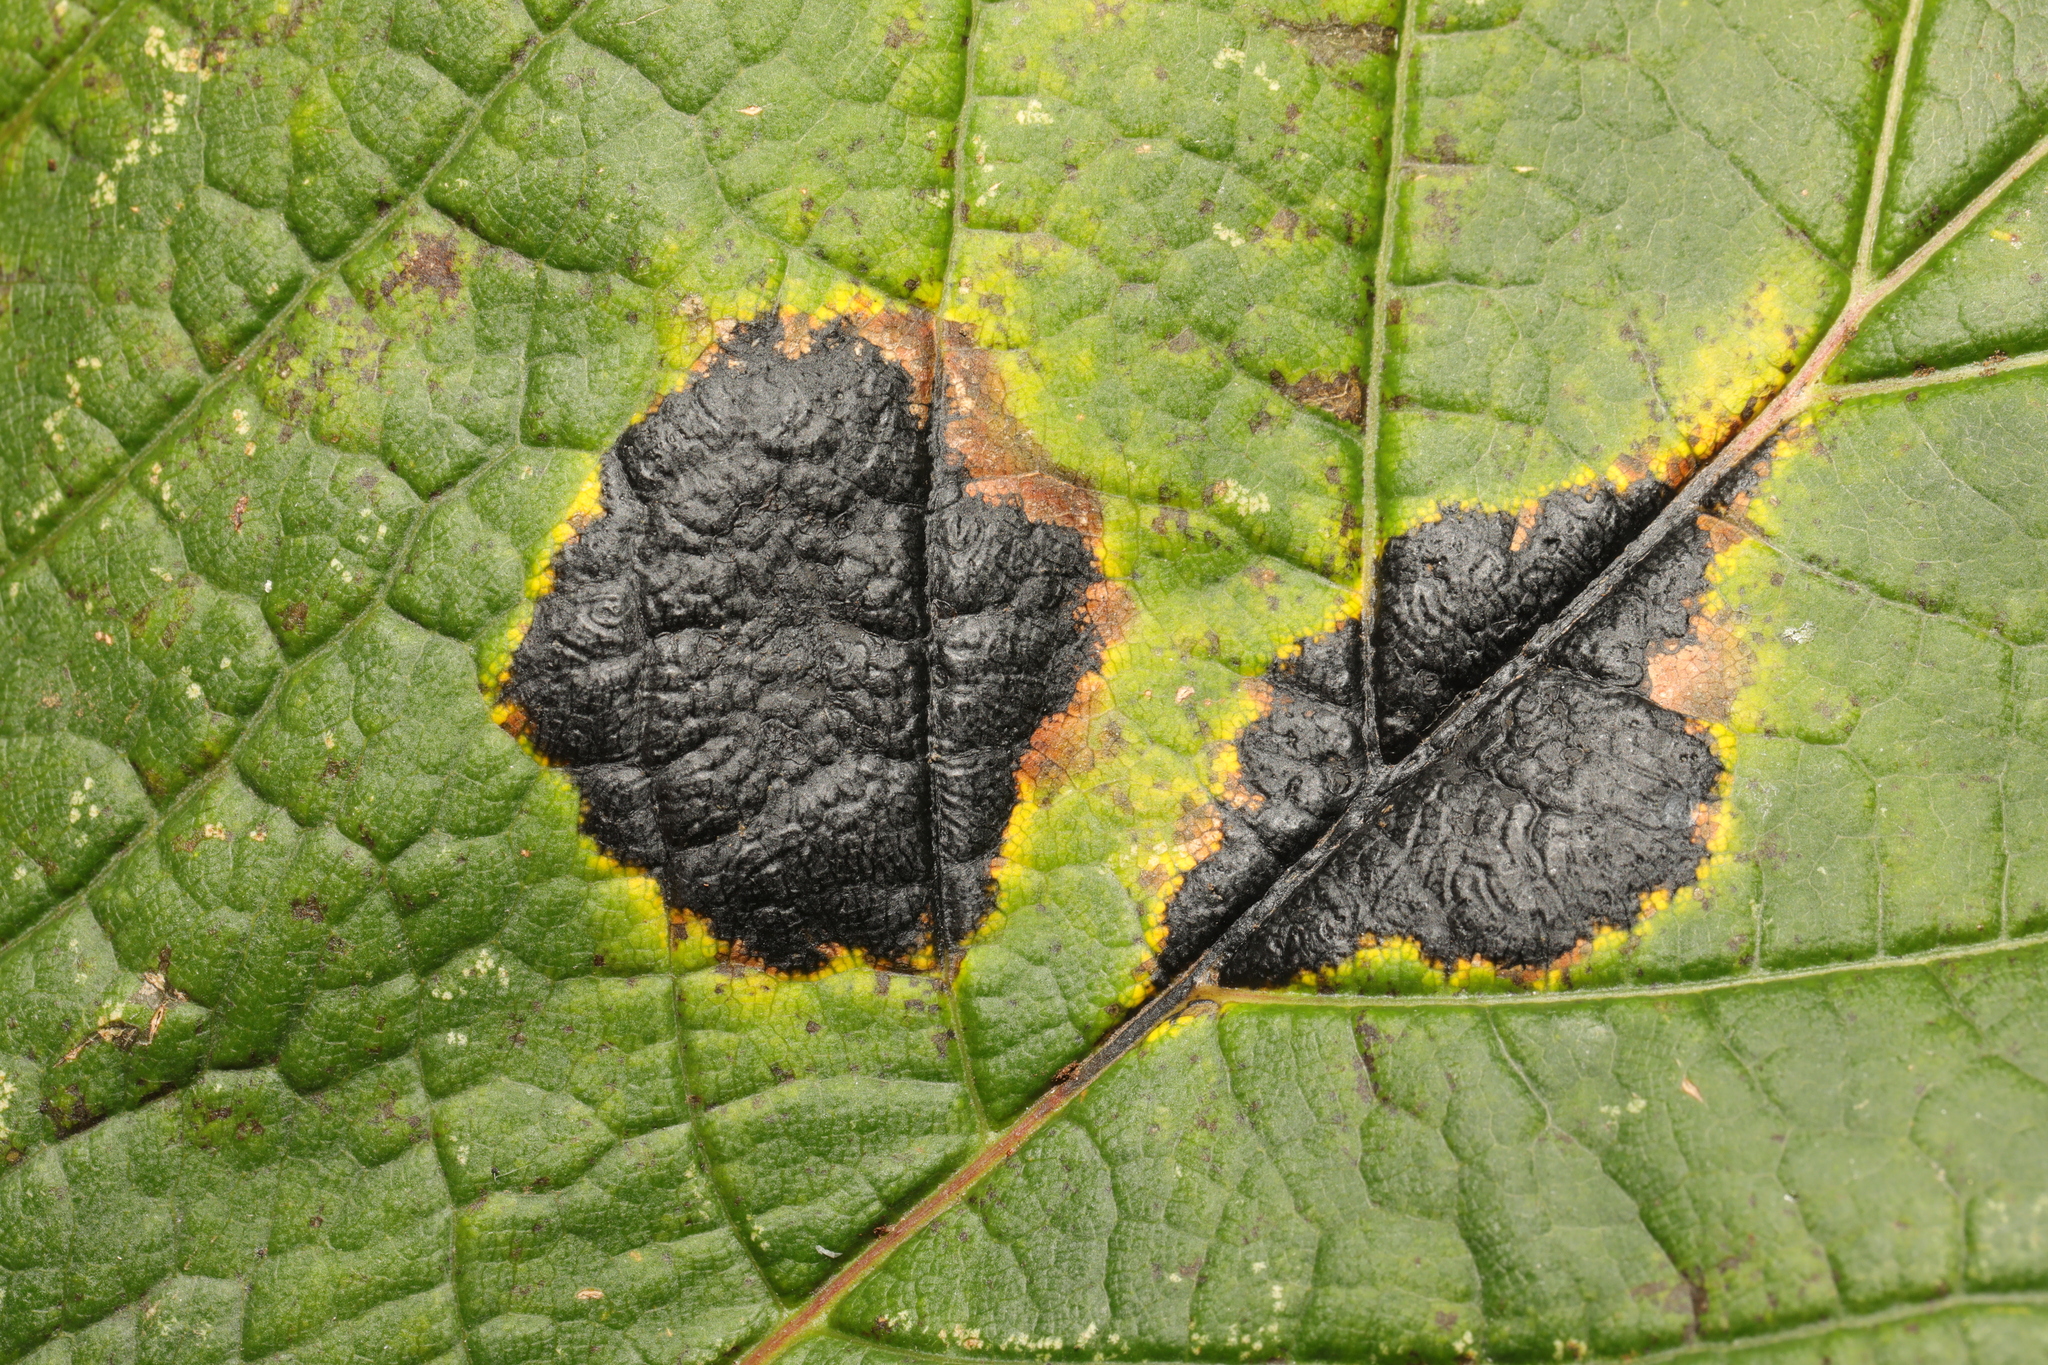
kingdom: Fungi
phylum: Ascomycota
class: Leotiomycetes
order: Rhytismatales
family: Rhytismataceae
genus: Rhytisma
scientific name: Rhytisma acerinum
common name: European tar spot
